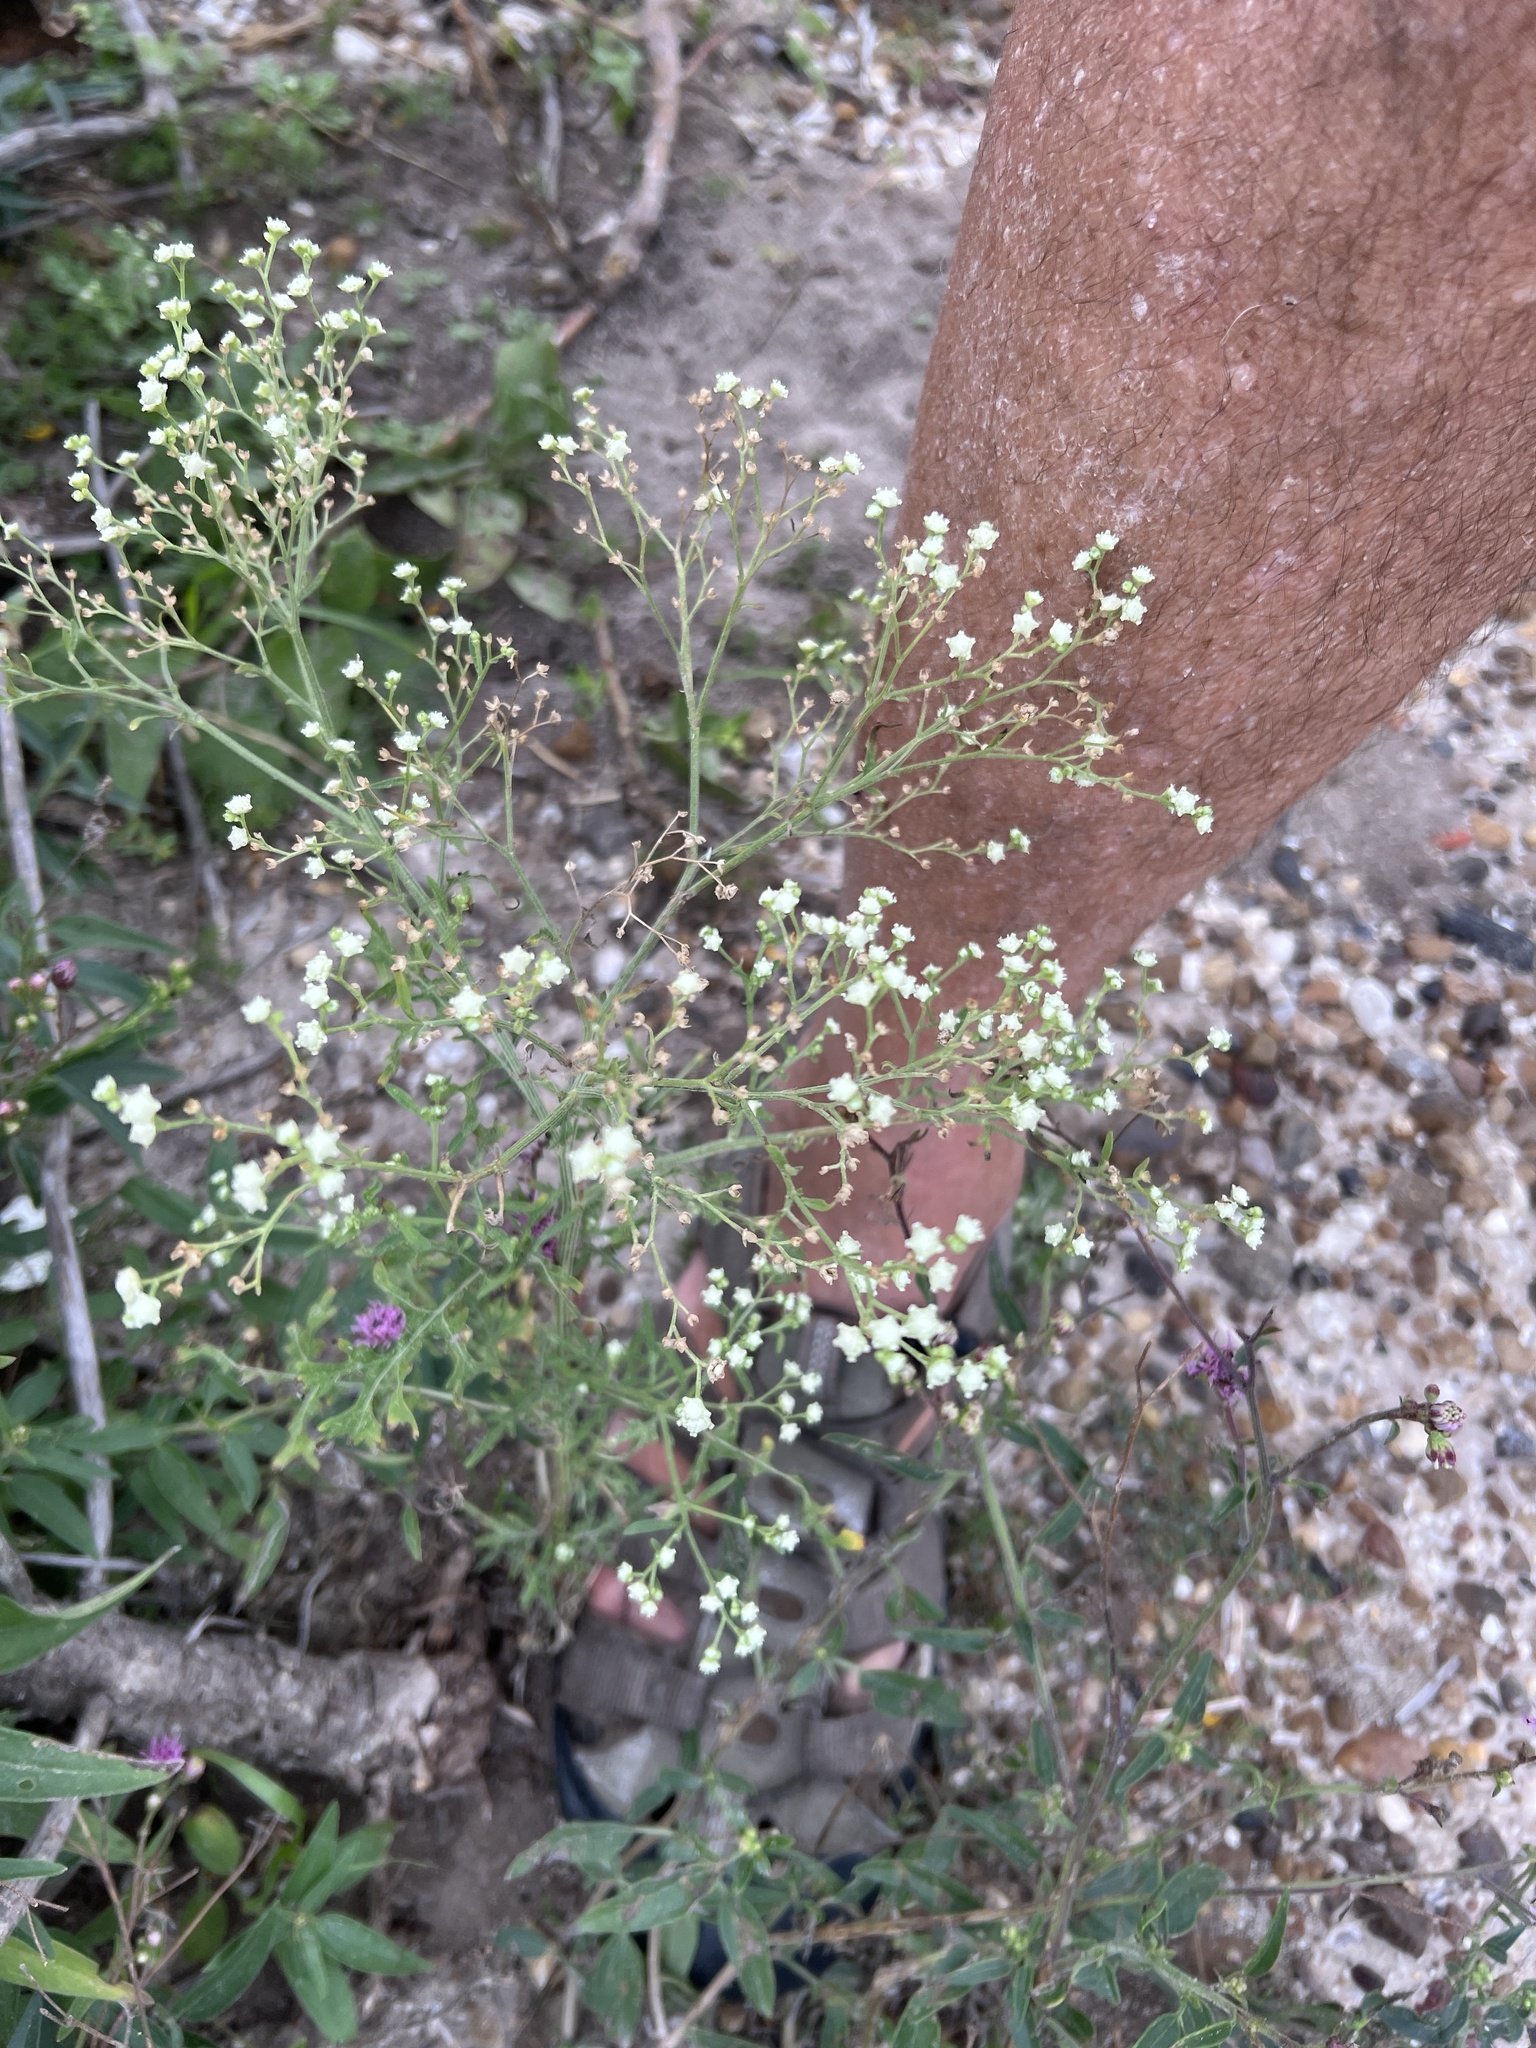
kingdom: Plantae
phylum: Tracheophyta
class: Magnoliopsida
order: Asterales
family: Asteraceae
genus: Parthenium
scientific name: Parthenium hysterophorus
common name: Santa maria feverfew
